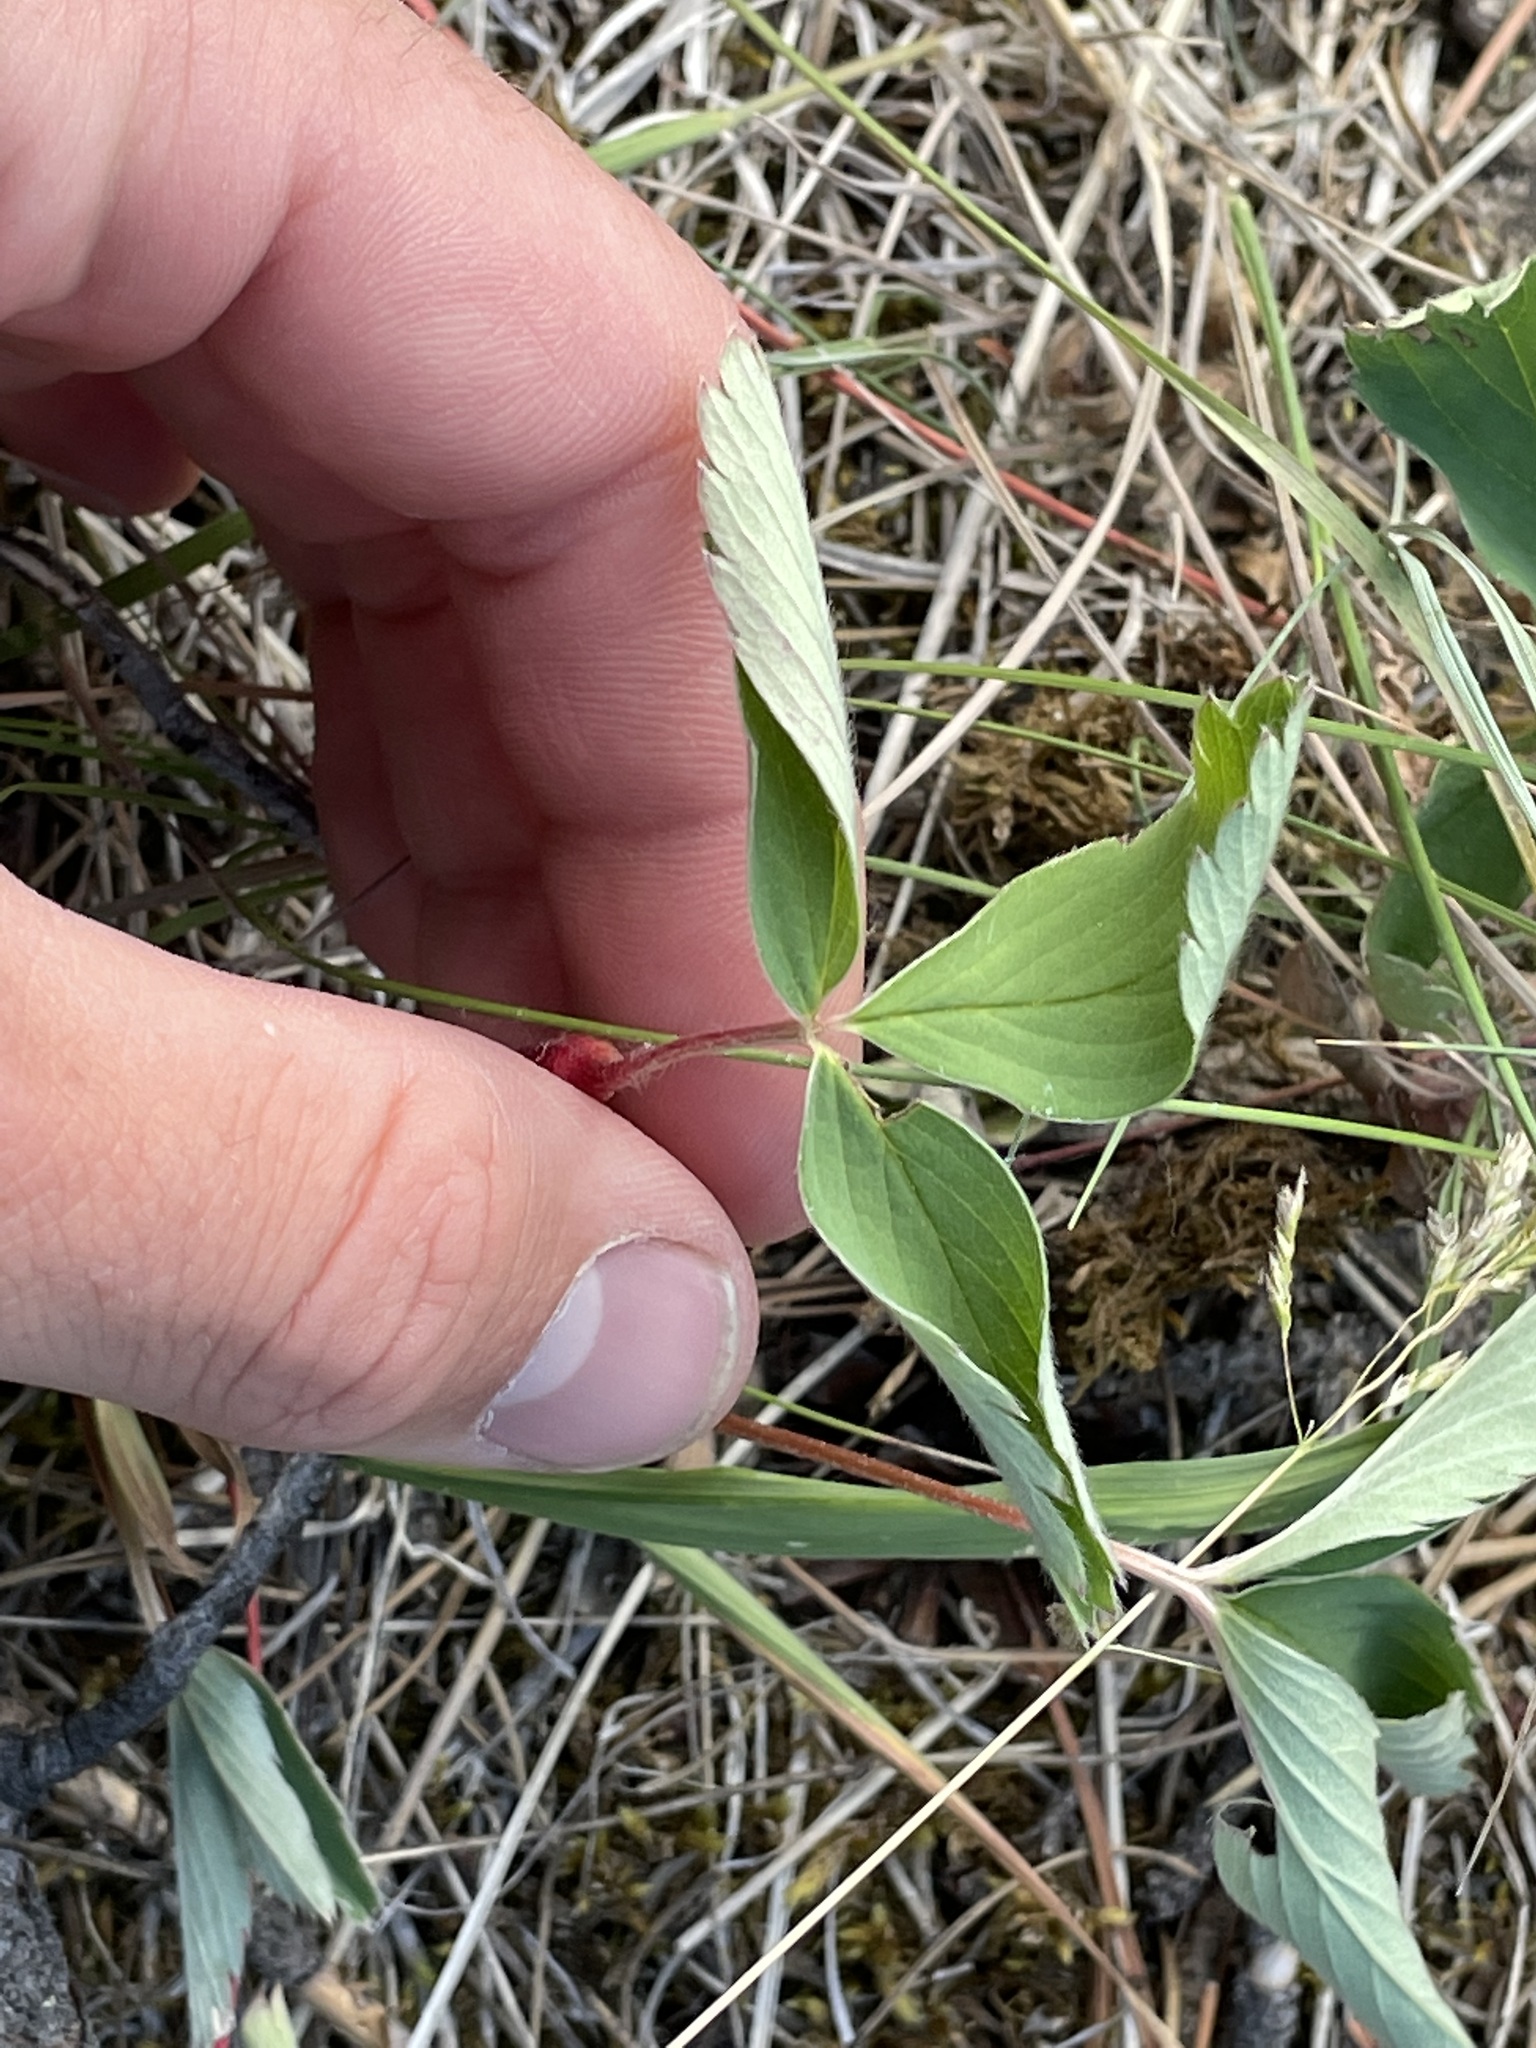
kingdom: Animalia
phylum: Arthropoda
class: Insecta
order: Hymenoptera
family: Cynipidae
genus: Diastrophus
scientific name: Diastrophus
